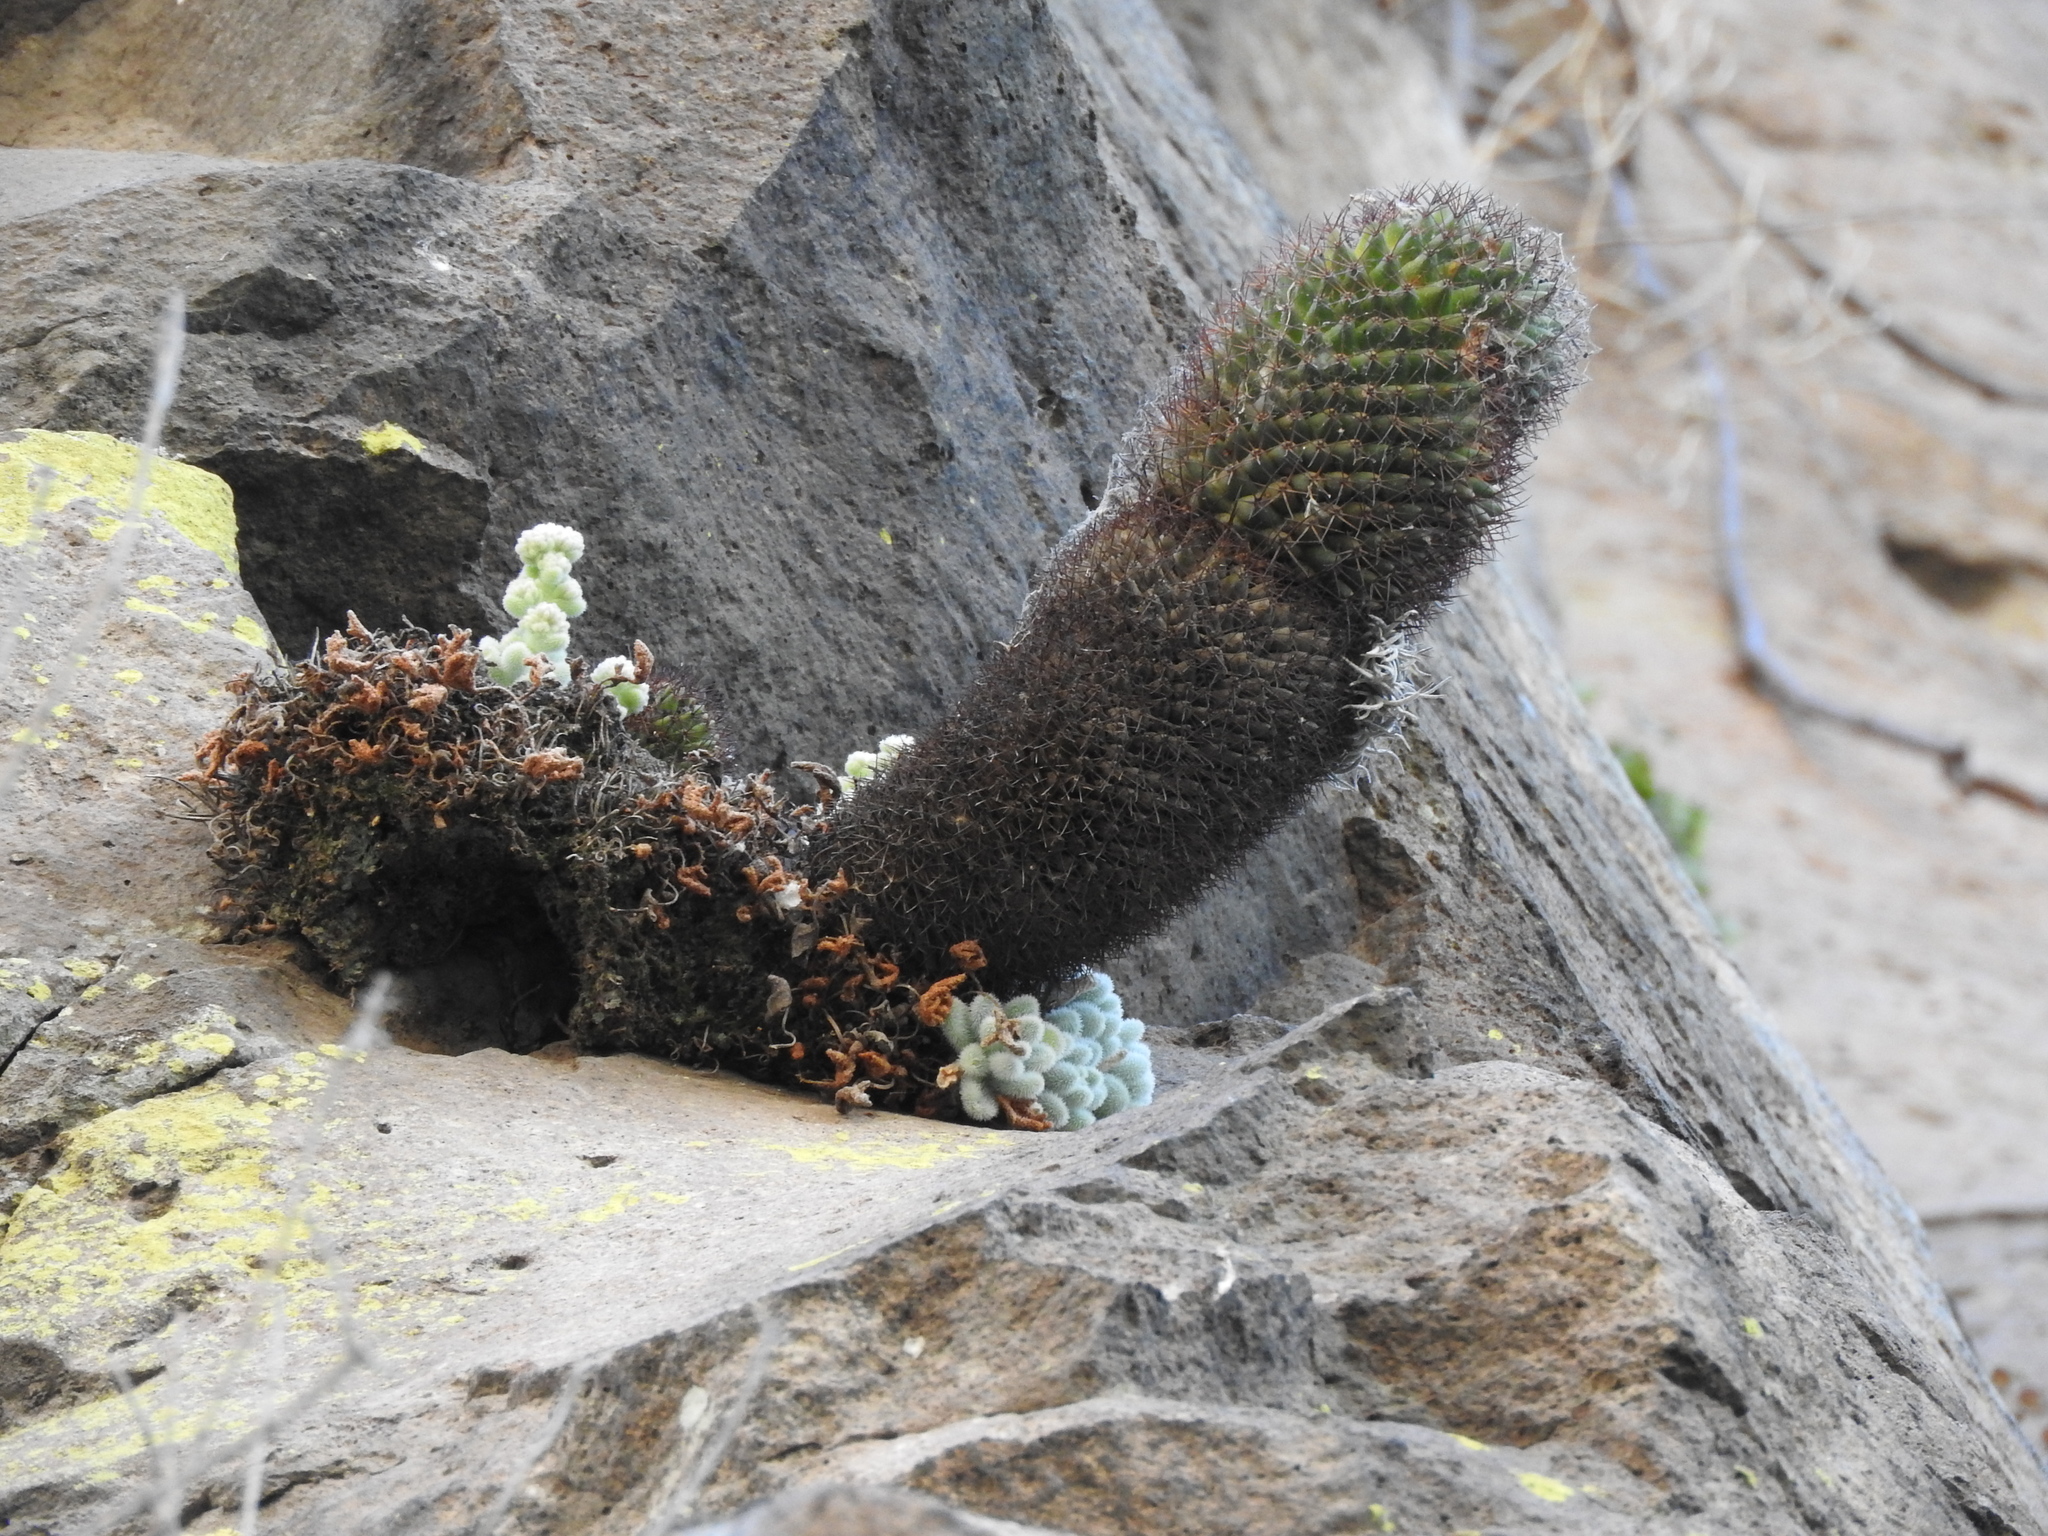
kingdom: Plantae
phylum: Tracheophyta
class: Magnoliopsida
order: Saxifragales
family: Crassulaceae
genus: Sedum
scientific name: Sedum mocinoanum
